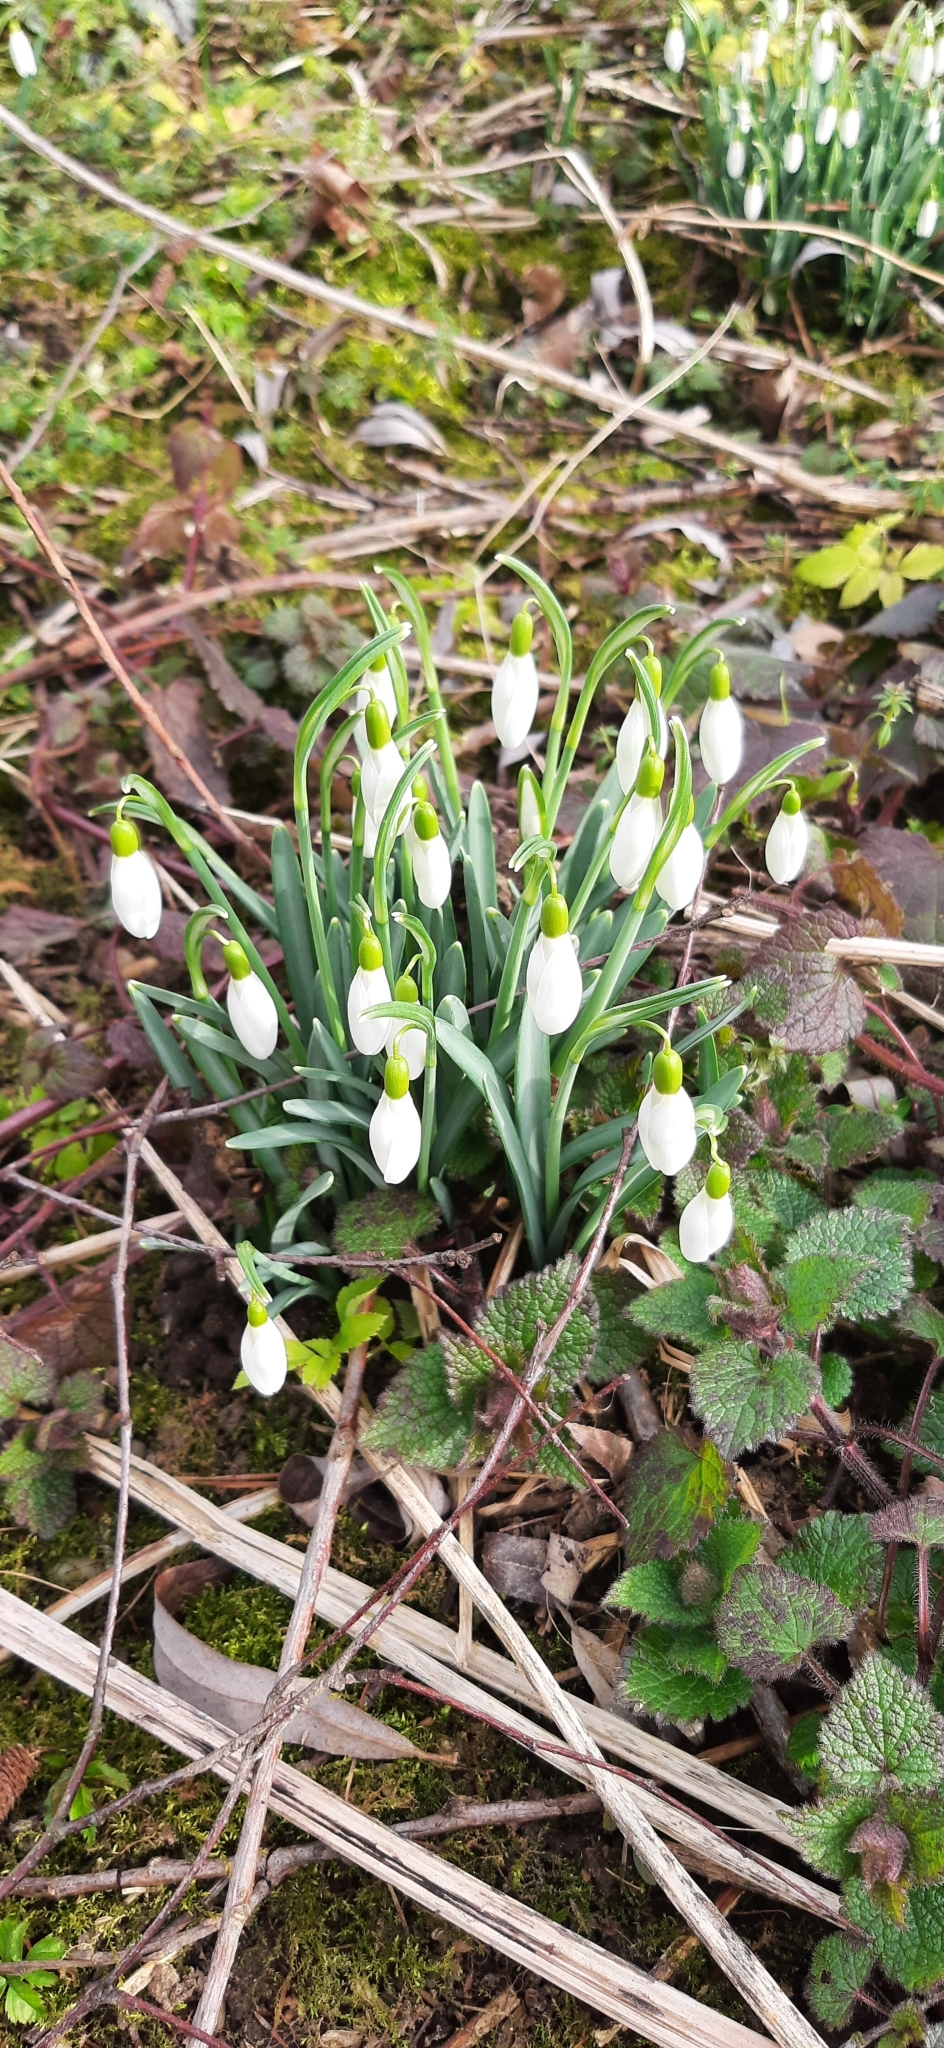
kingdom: Plantae
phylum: Tracheophyta
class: Liliopsida
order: Asparagales
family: Amaryllidaceae
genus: Galanthus
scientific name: Galanthus nivalis
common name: Snowdrop
